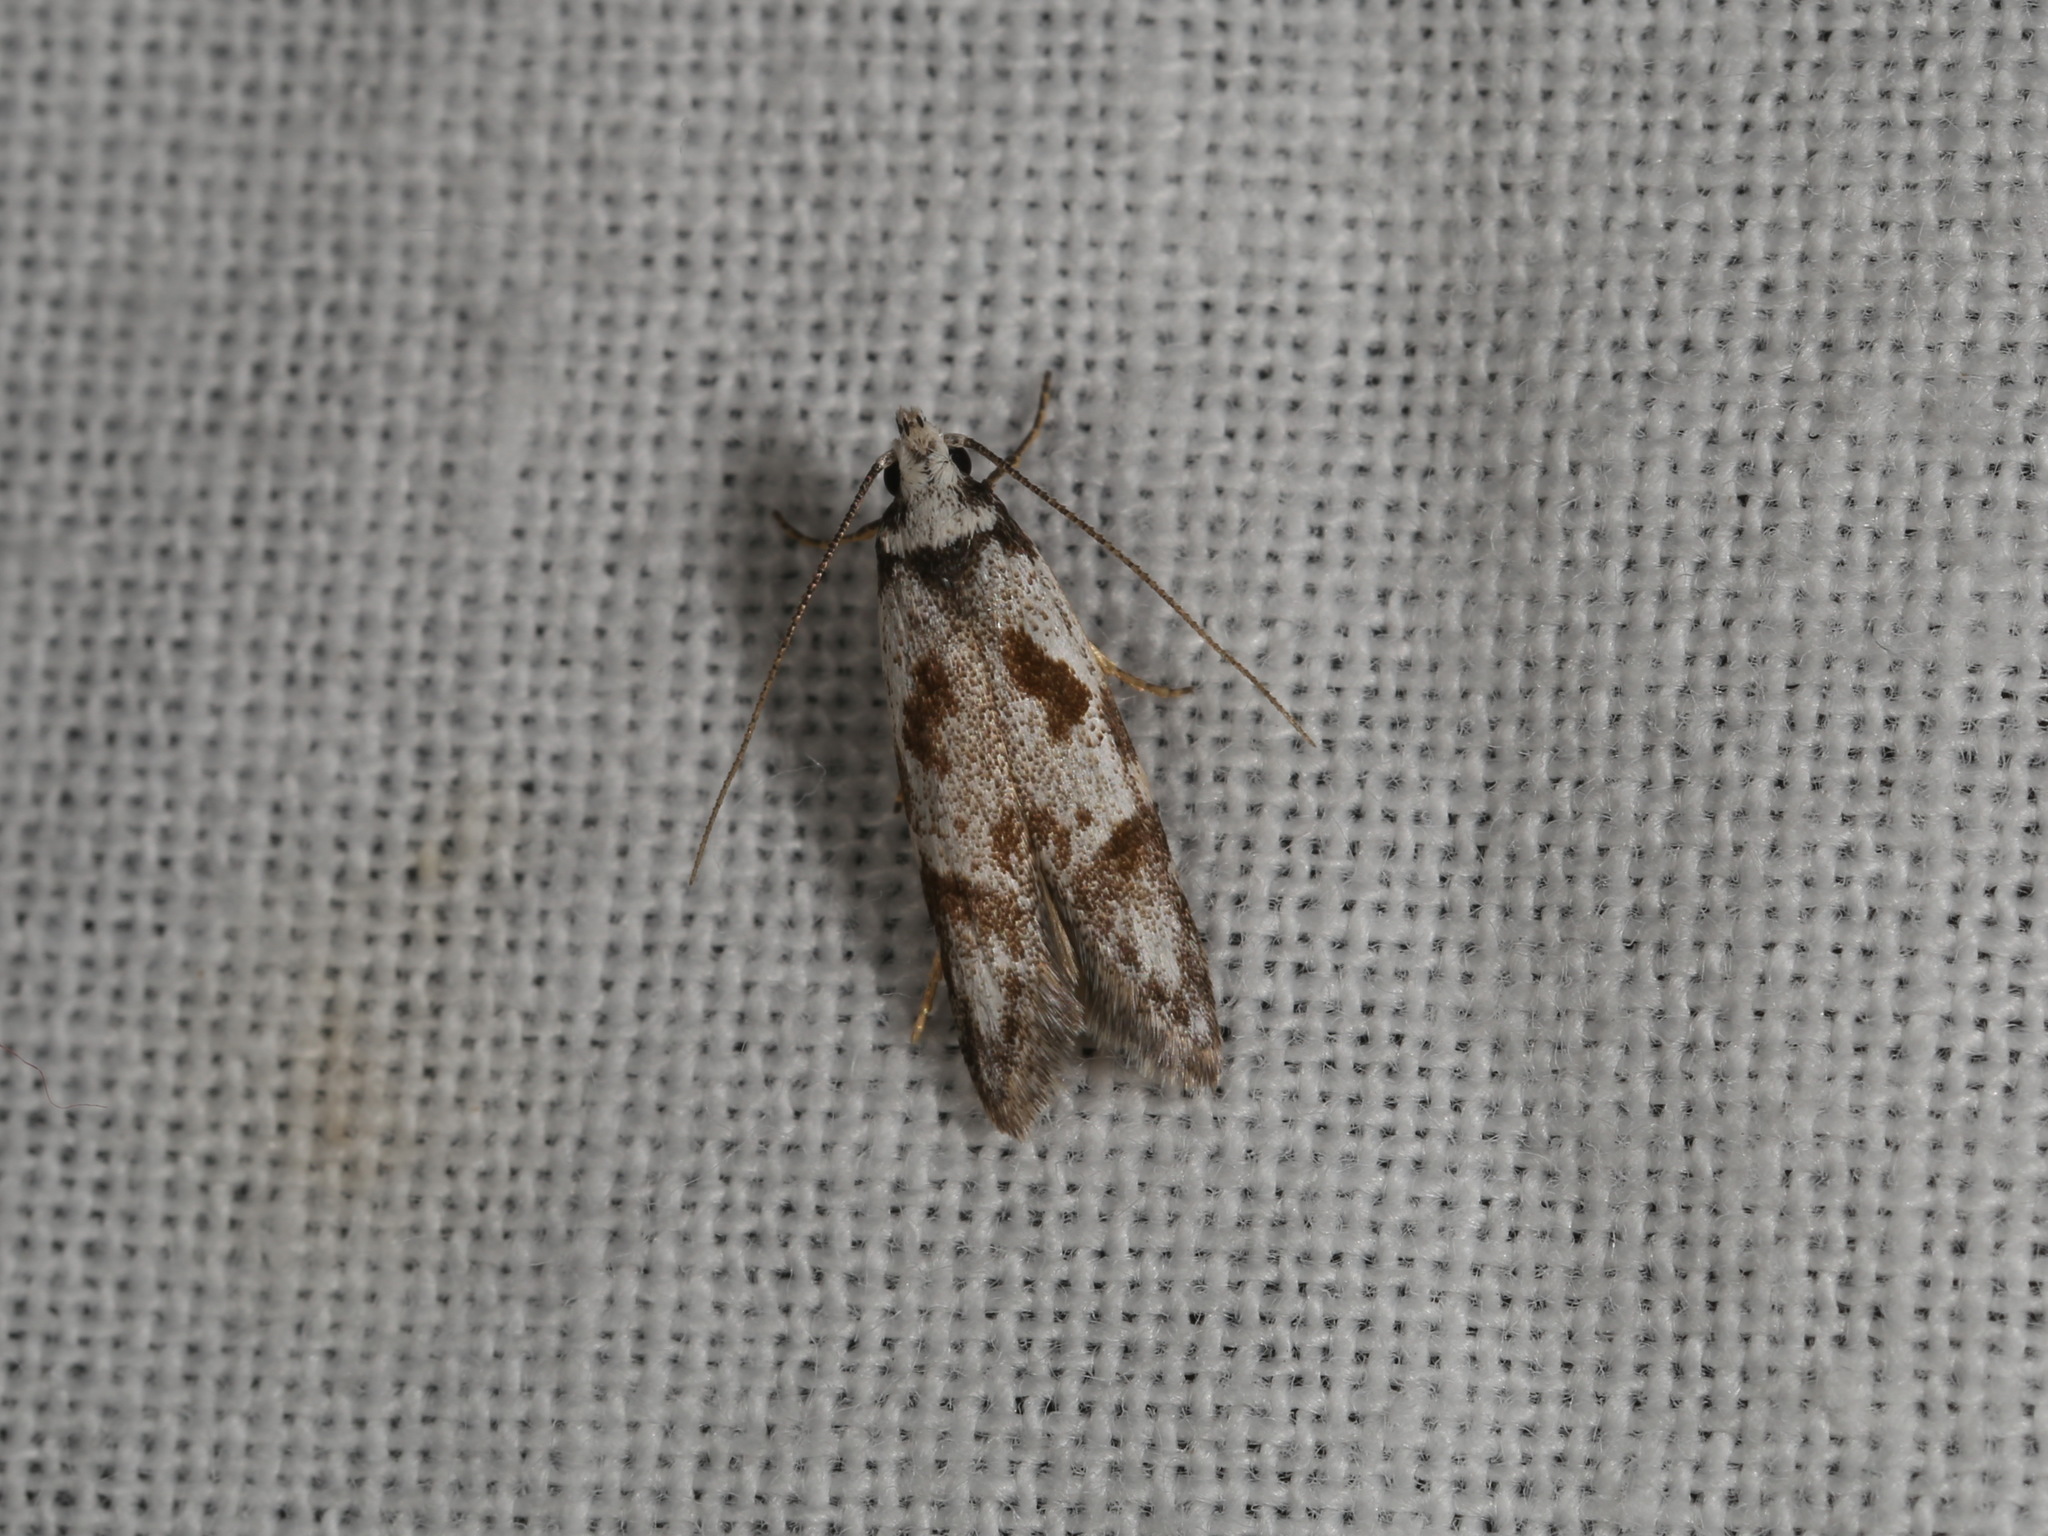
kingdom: Animalia
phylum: Arthropoda
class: Insecta
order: Lepidoptera
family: Oecophoridae
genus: Oxythecta
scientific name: Oxythecta loxomochla
